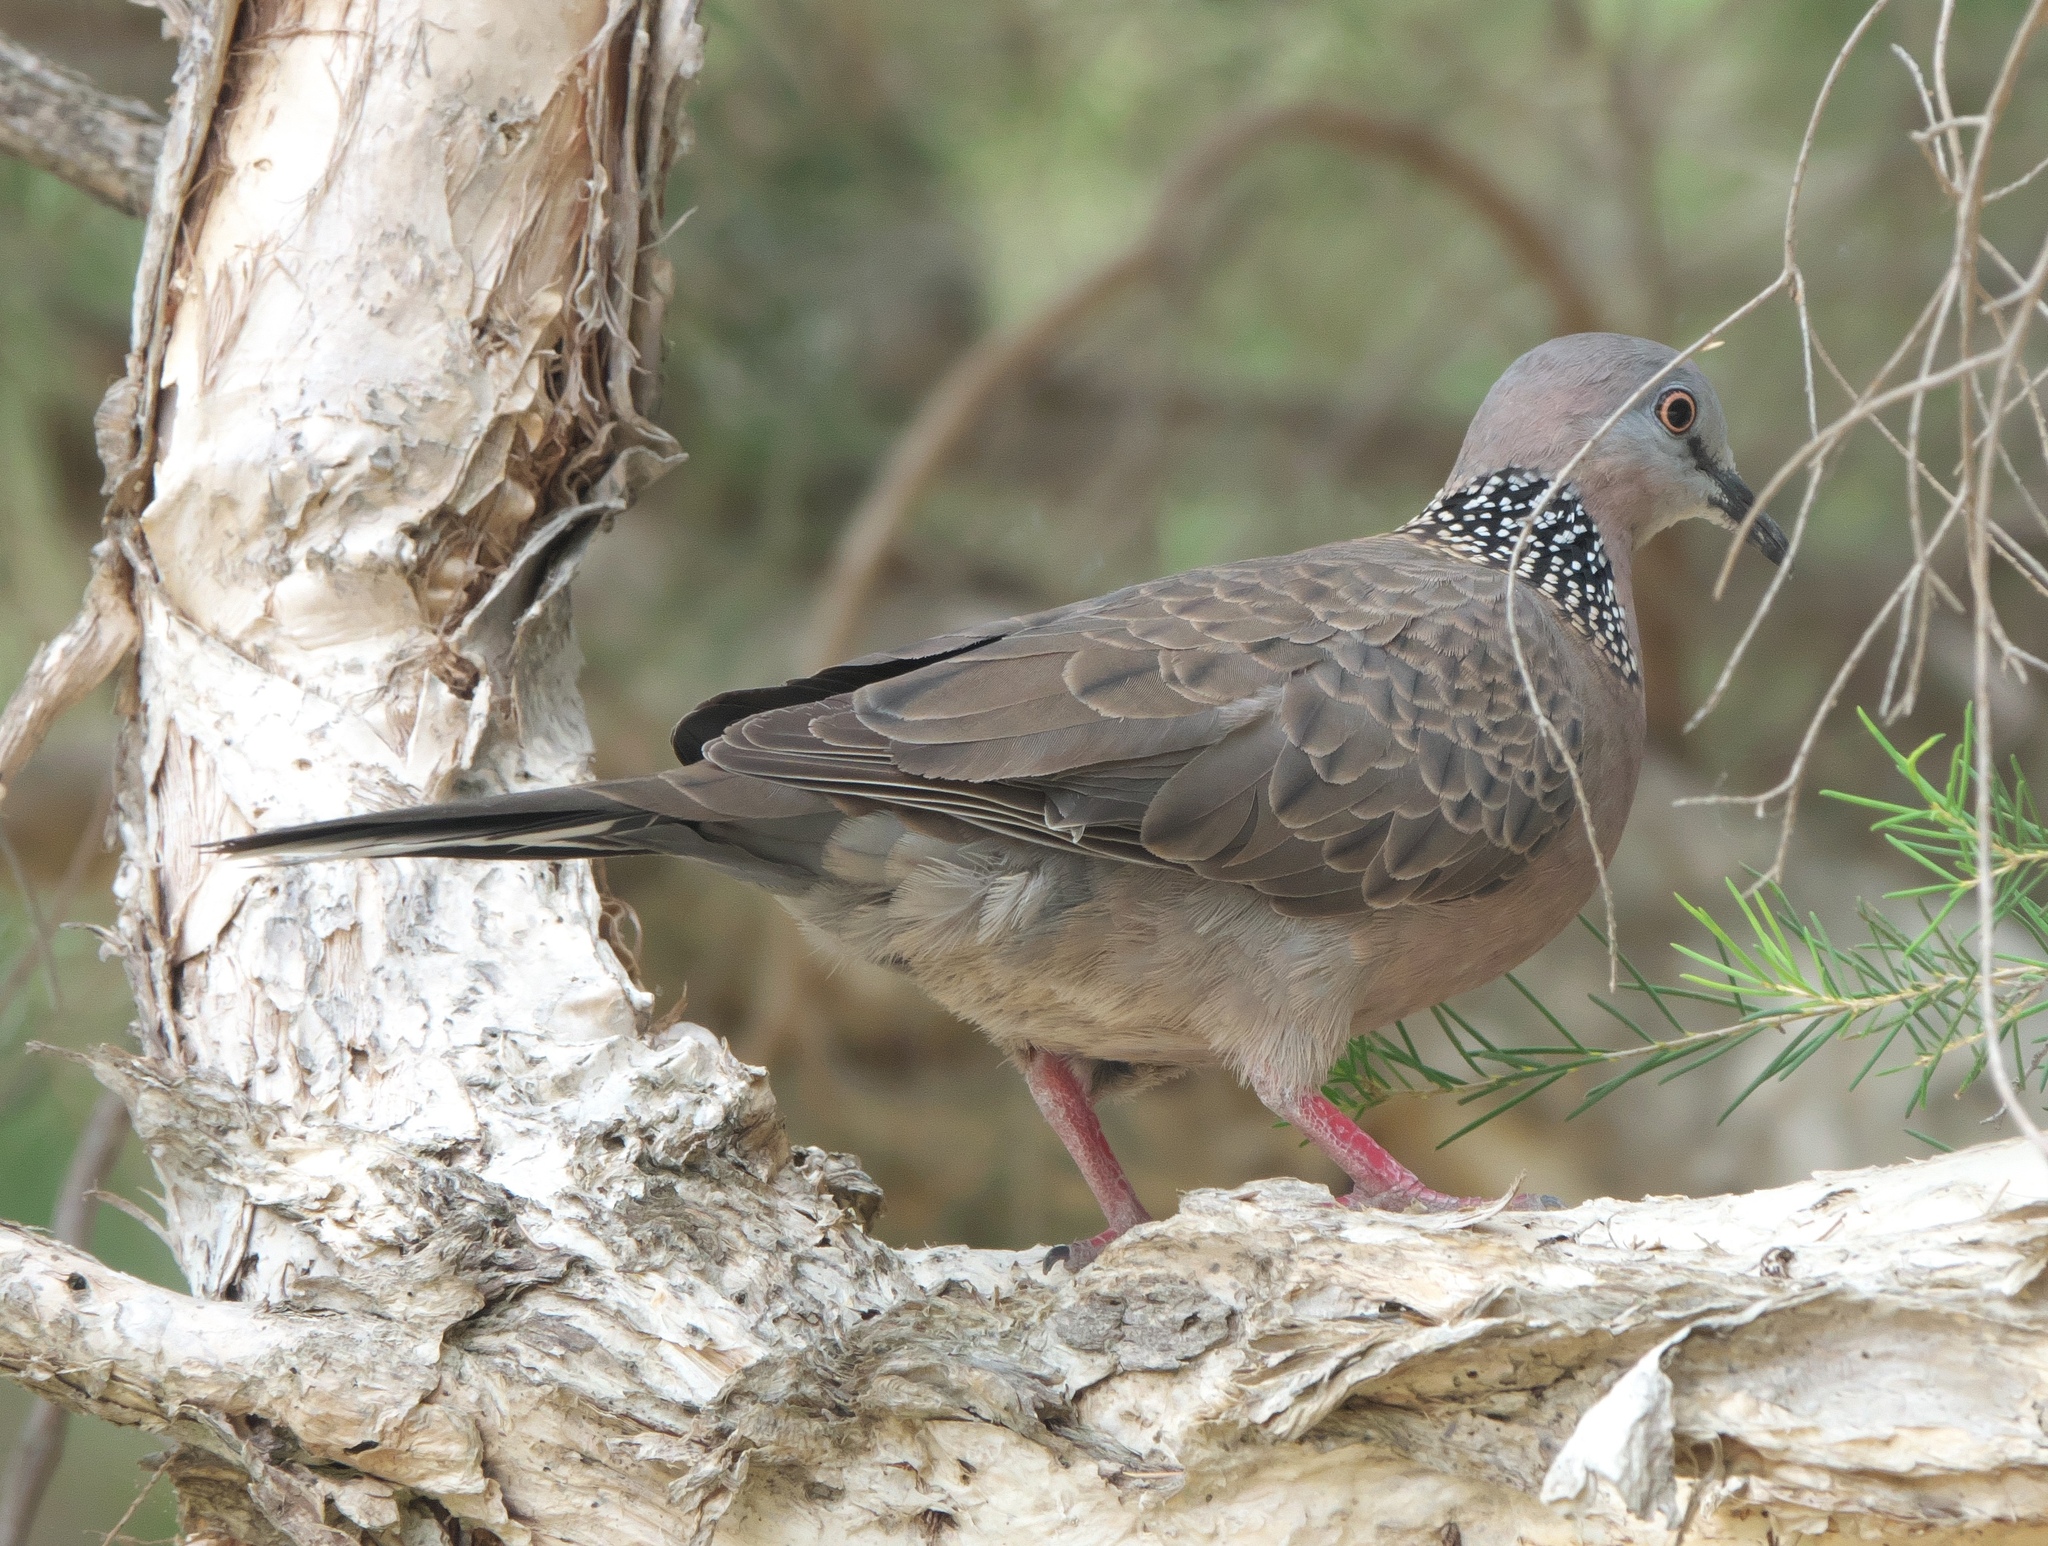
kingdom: Animalia
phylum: Chordata
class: Aves
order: Columbiformes
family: Columbidae
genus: Spilopelia
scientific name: Spilopelia chinensis
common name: Spotted dove
